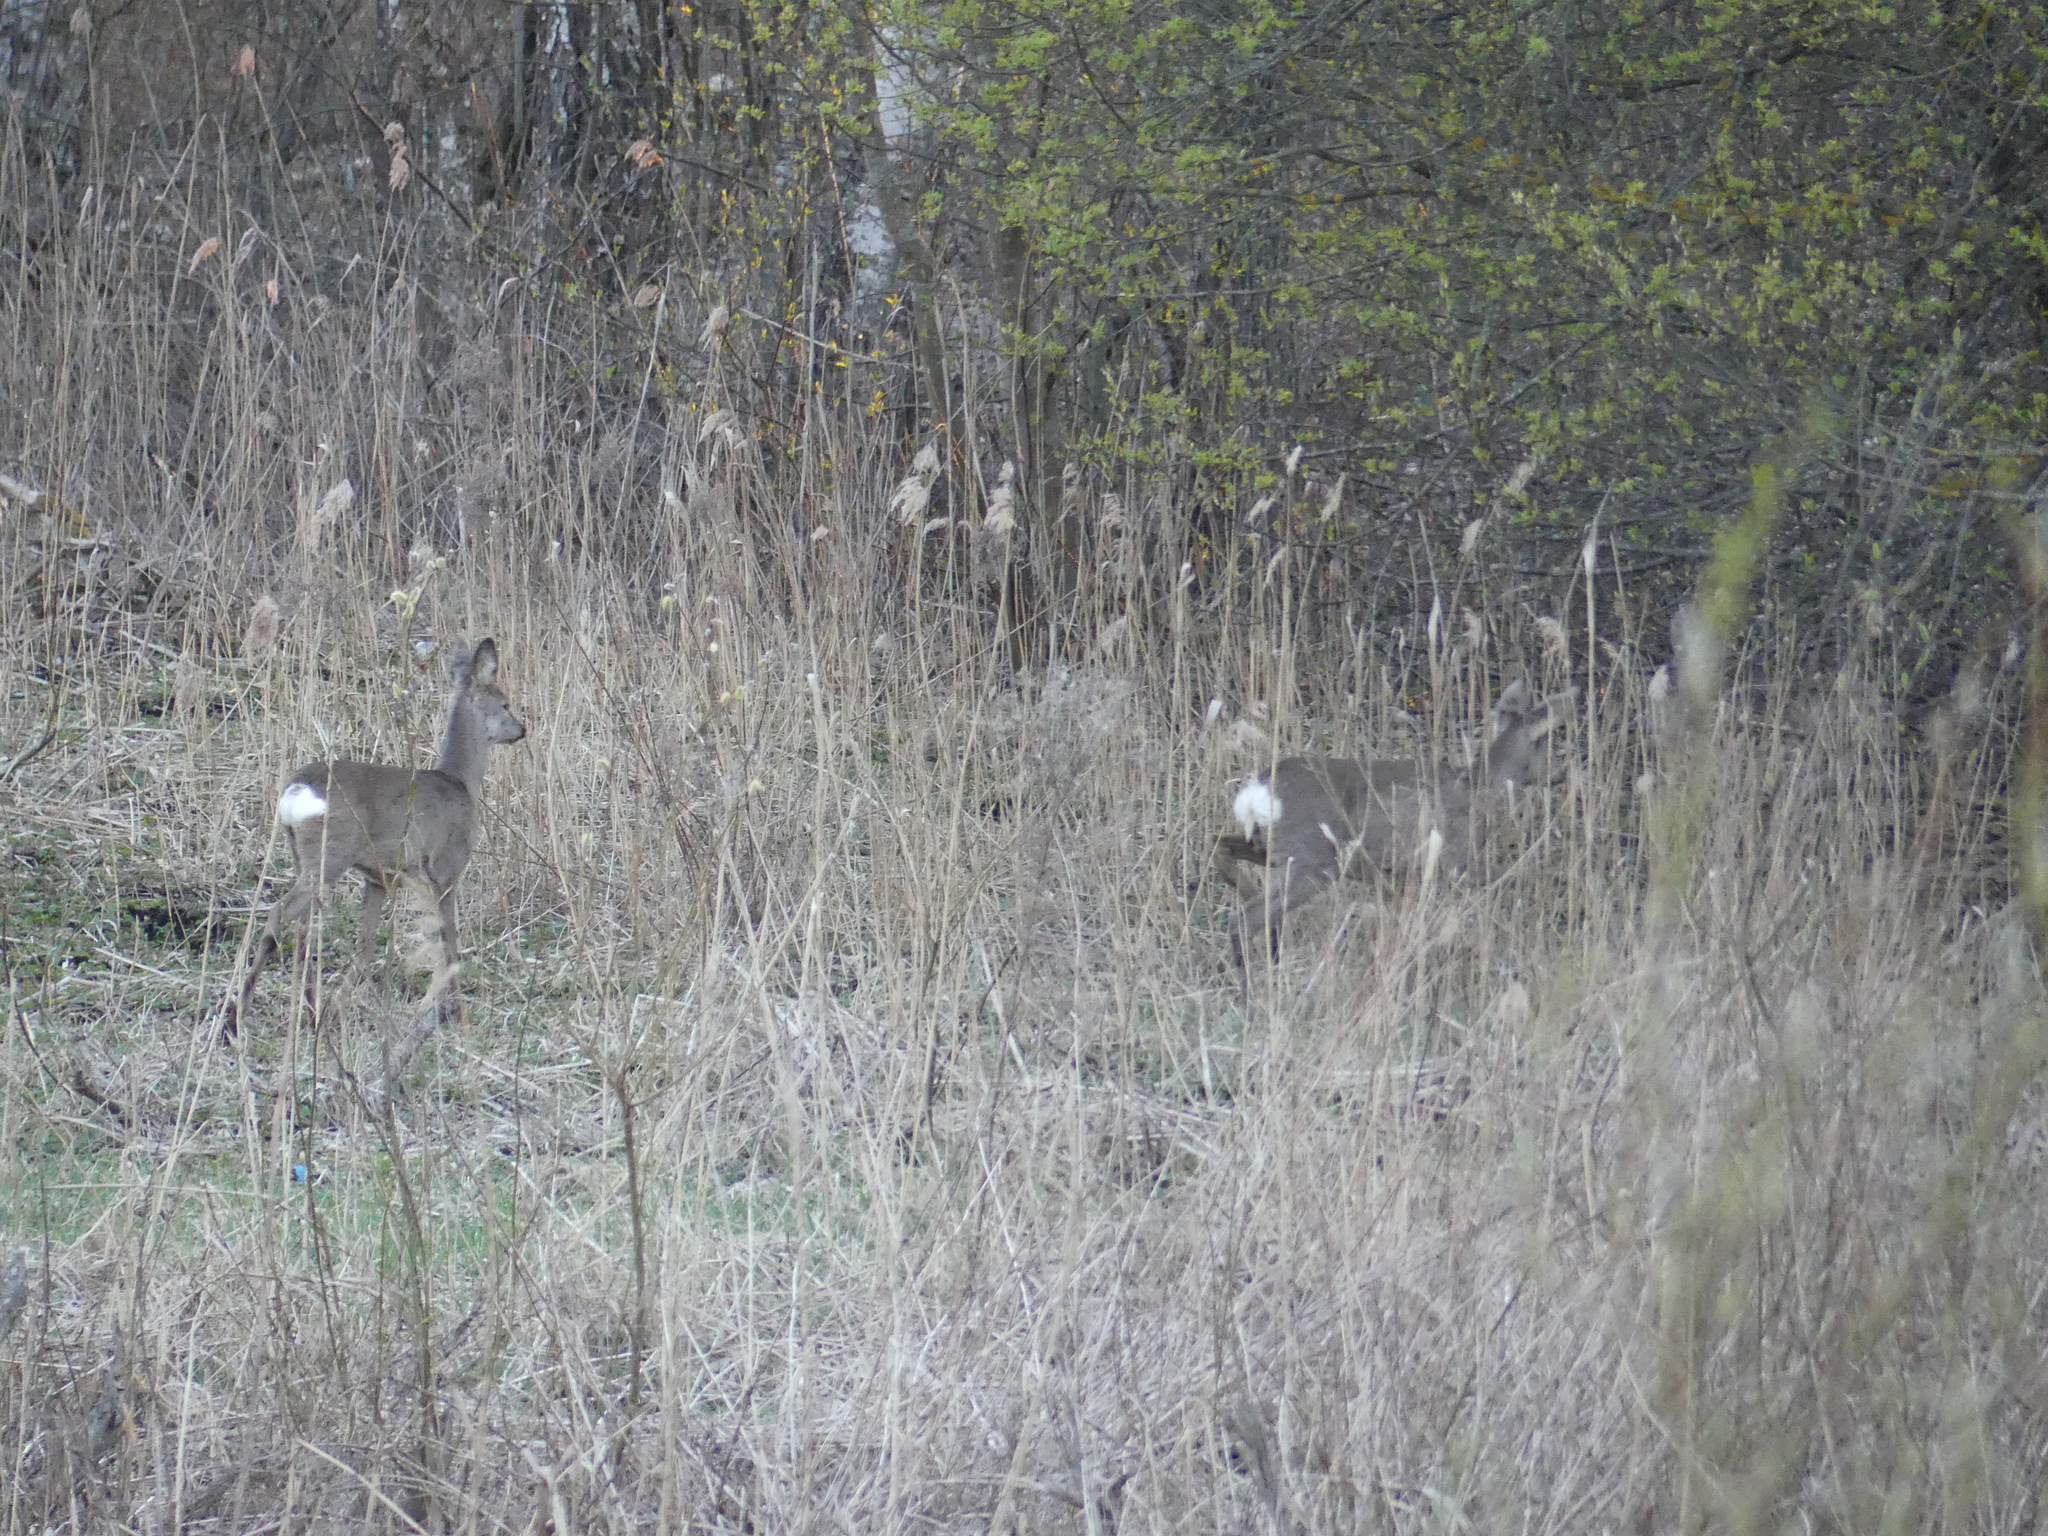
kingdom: Animalia
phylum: Chordata
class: Mammalia
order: Artiodactyla
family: Cervidae
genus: Capreolus
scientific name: Capreolus capreolus
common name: Western roe deer
